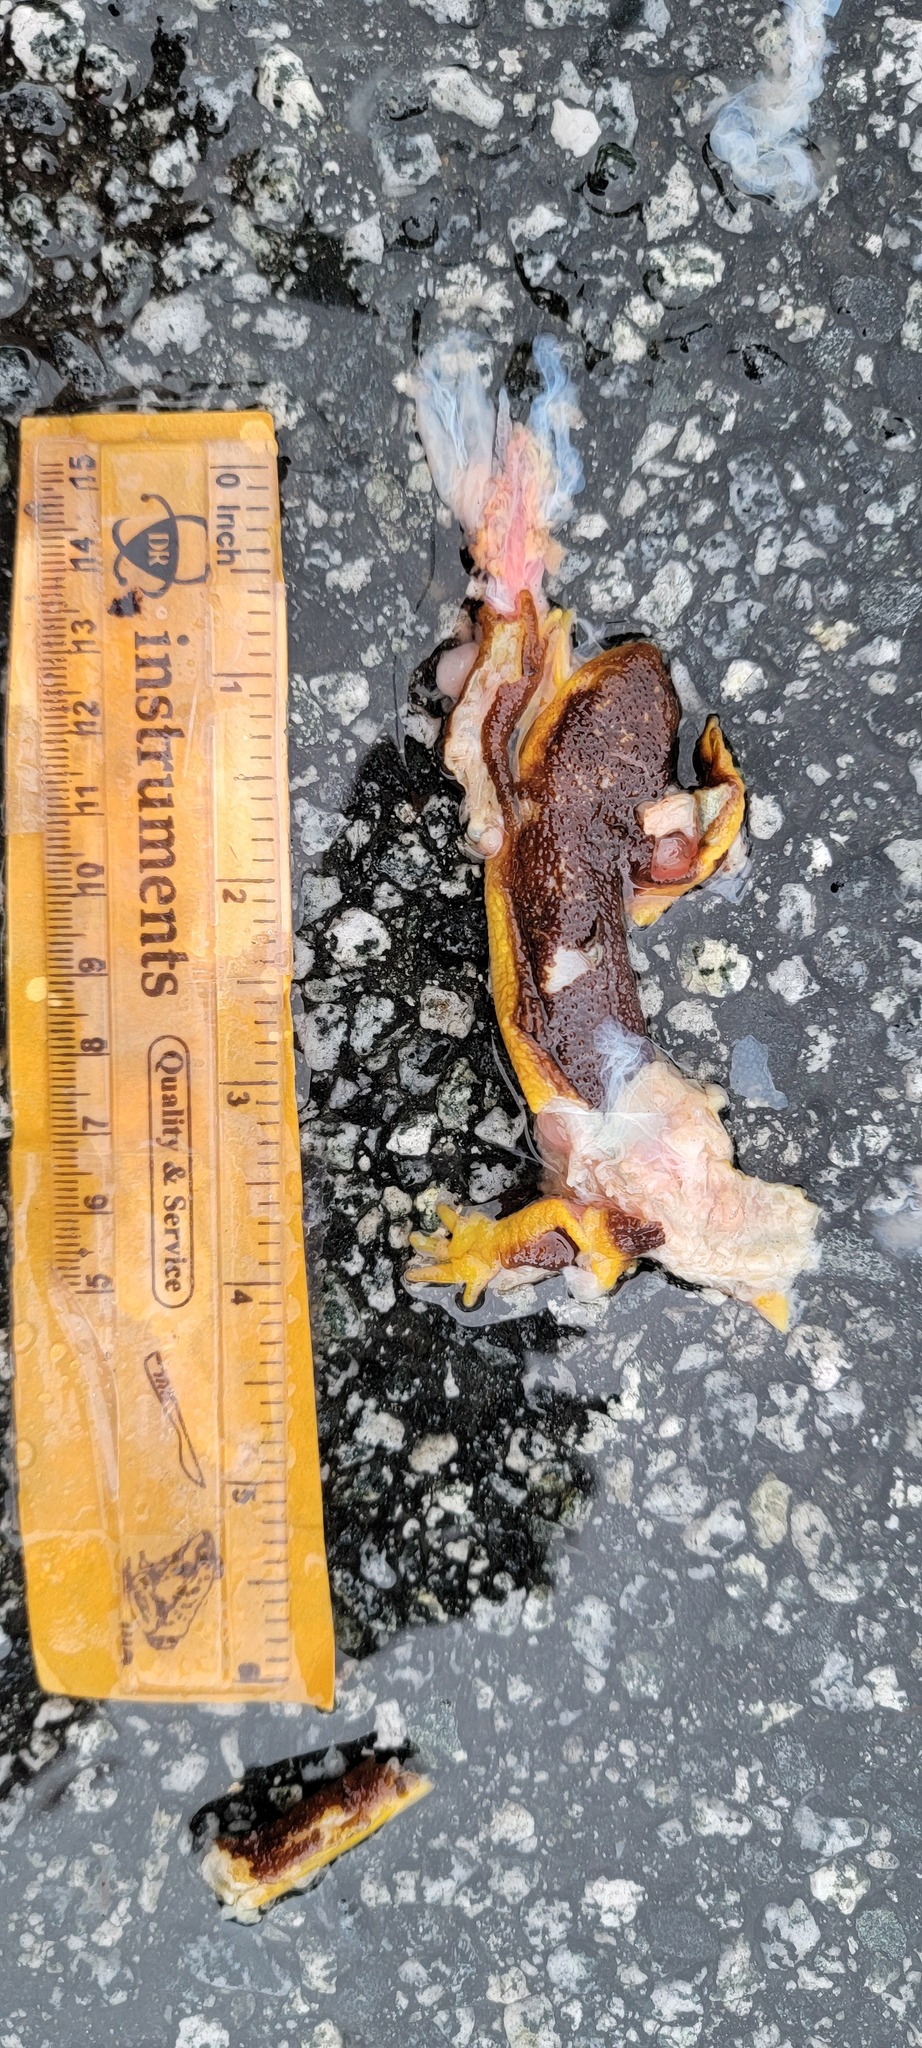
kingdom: Animalia
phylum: Chordata
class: Amphibia
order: Caudata
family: Salamandridae
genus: Taricha
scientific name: Taricha
